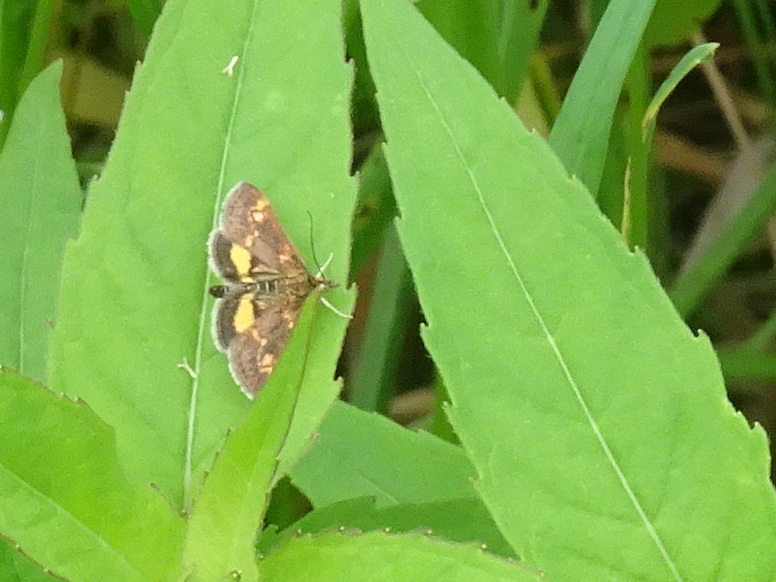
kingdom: Animalia
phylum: Arthropoda
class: Insecta
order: Lepidoptera
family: Crambidae
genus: Pyrausta
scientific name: Pyrausta orphisalis
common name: Orange mint moth
